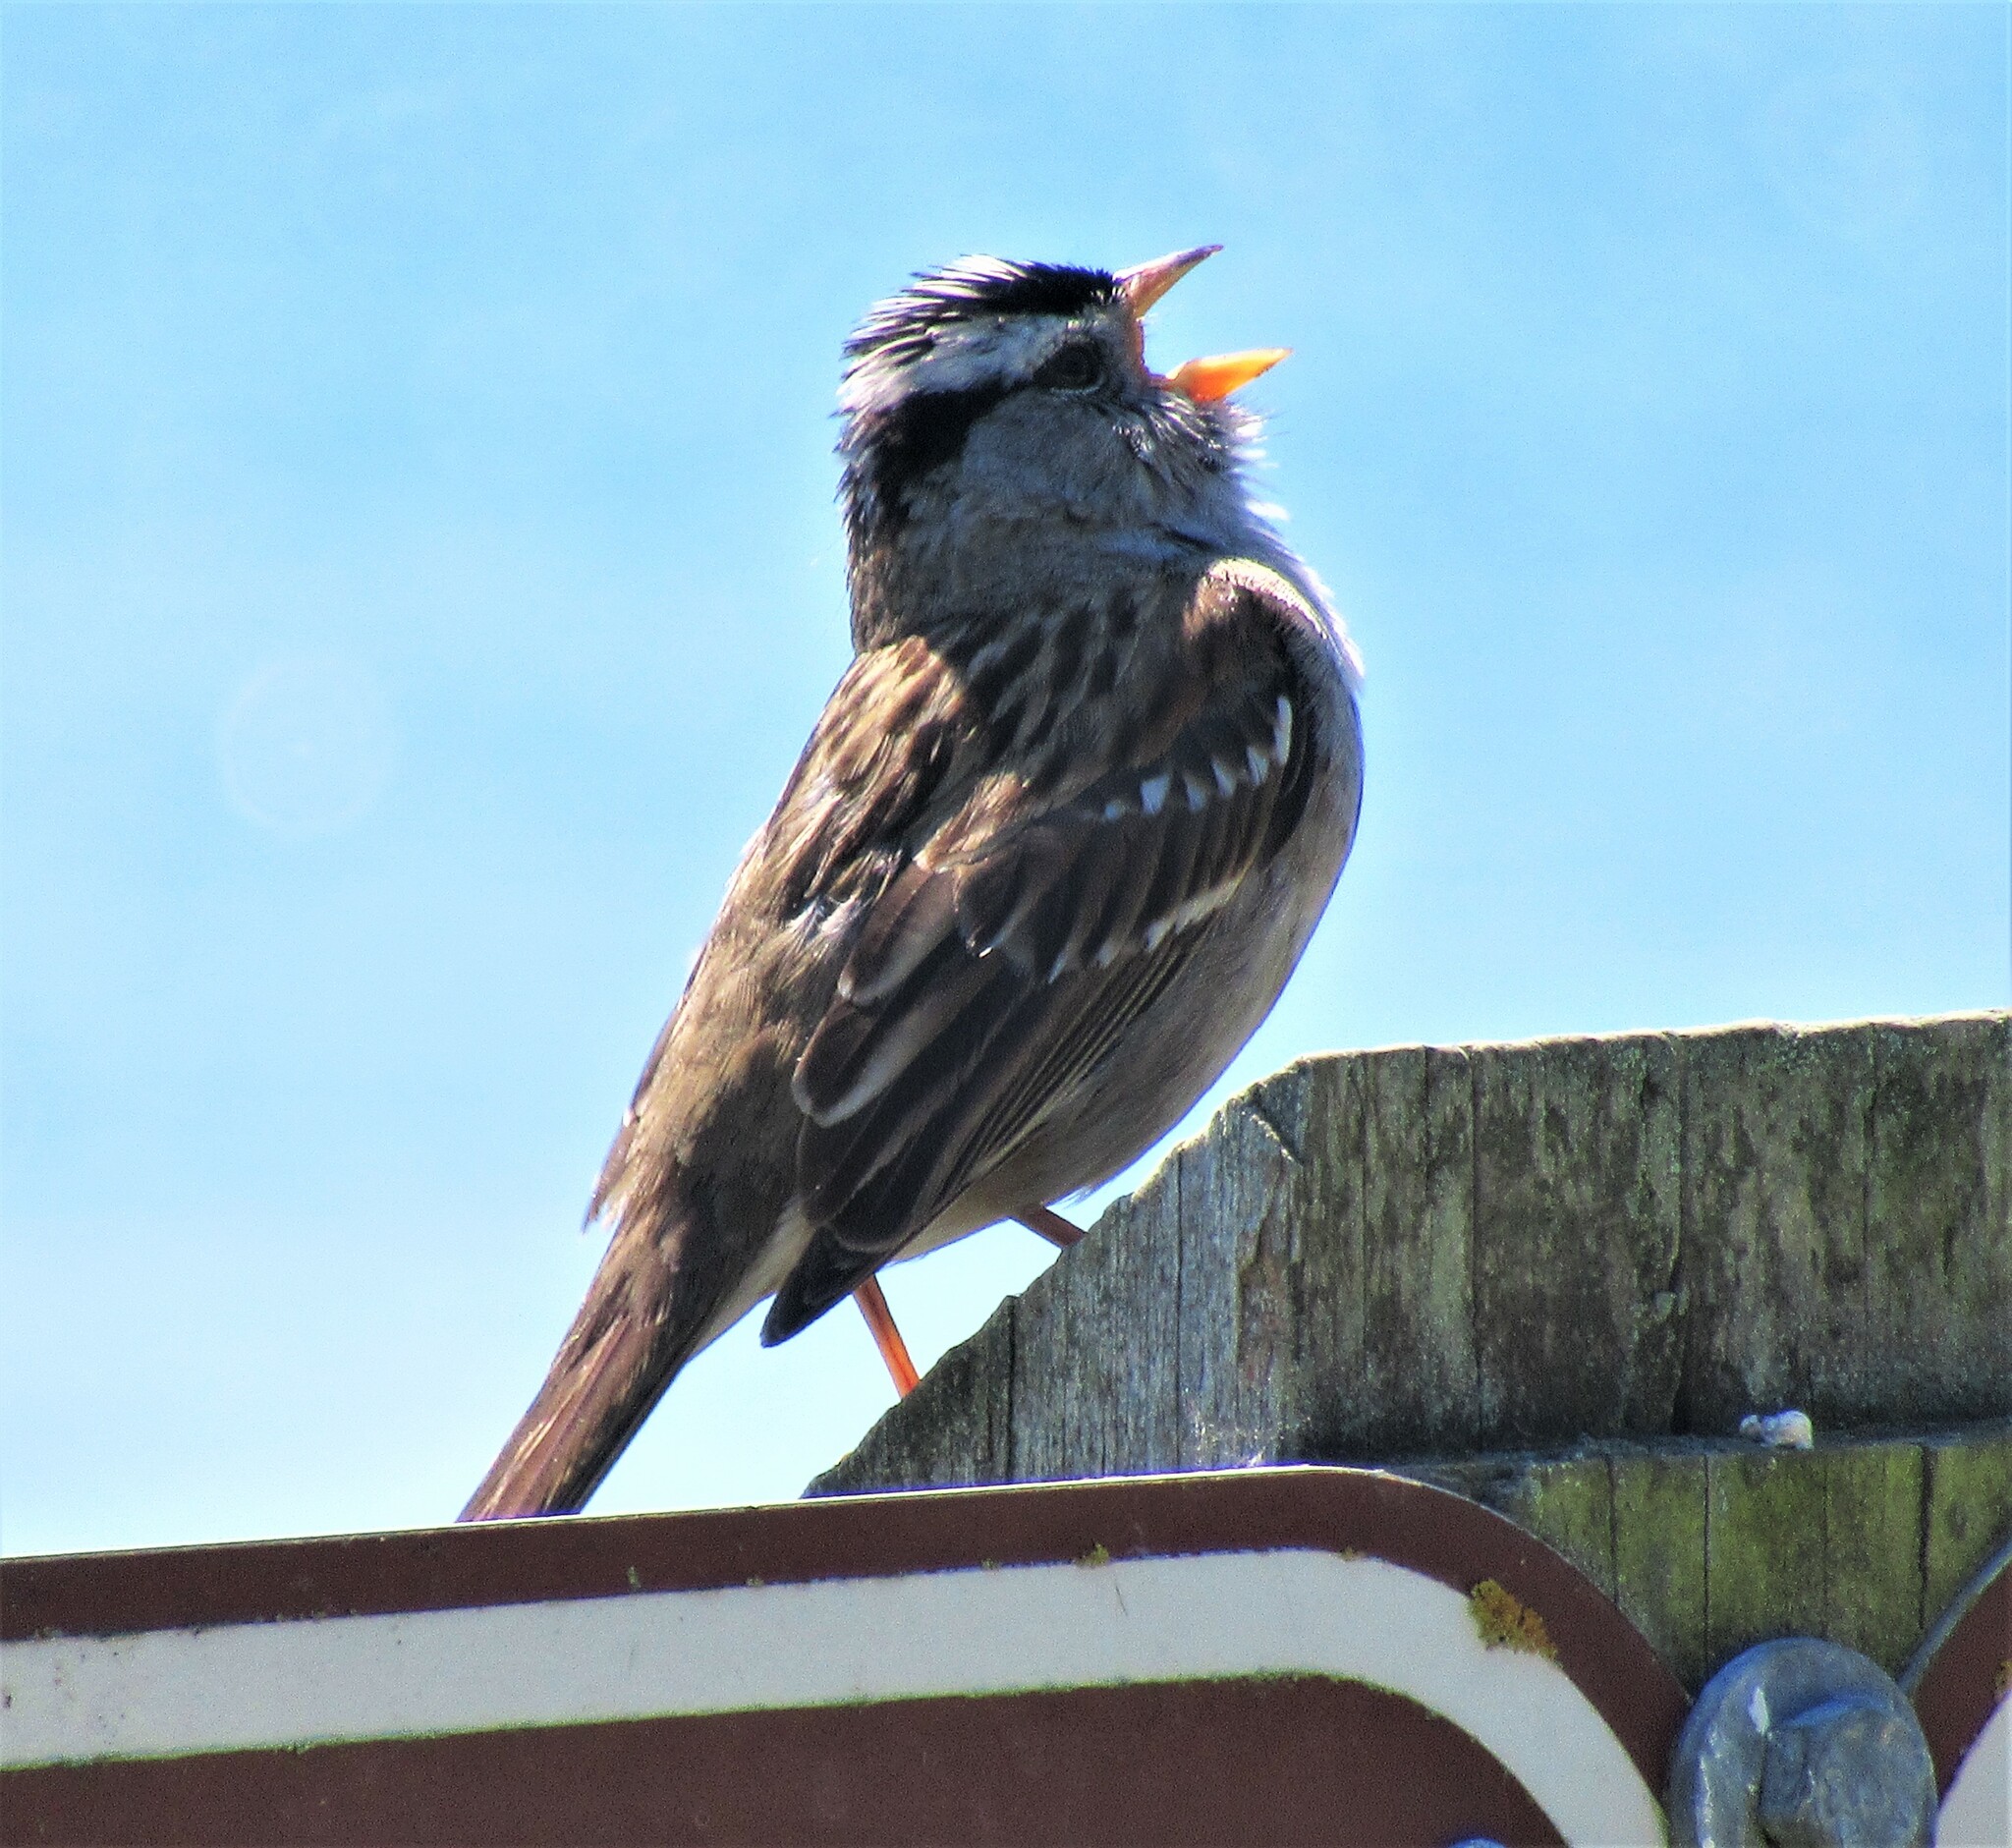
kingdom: Animalia
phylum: Chordata
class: Aves
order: Passeriformes
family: Passerellidae
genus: Zonotrichia
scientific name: Zonotrichia leucophrys
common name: White-crowned sparrow
